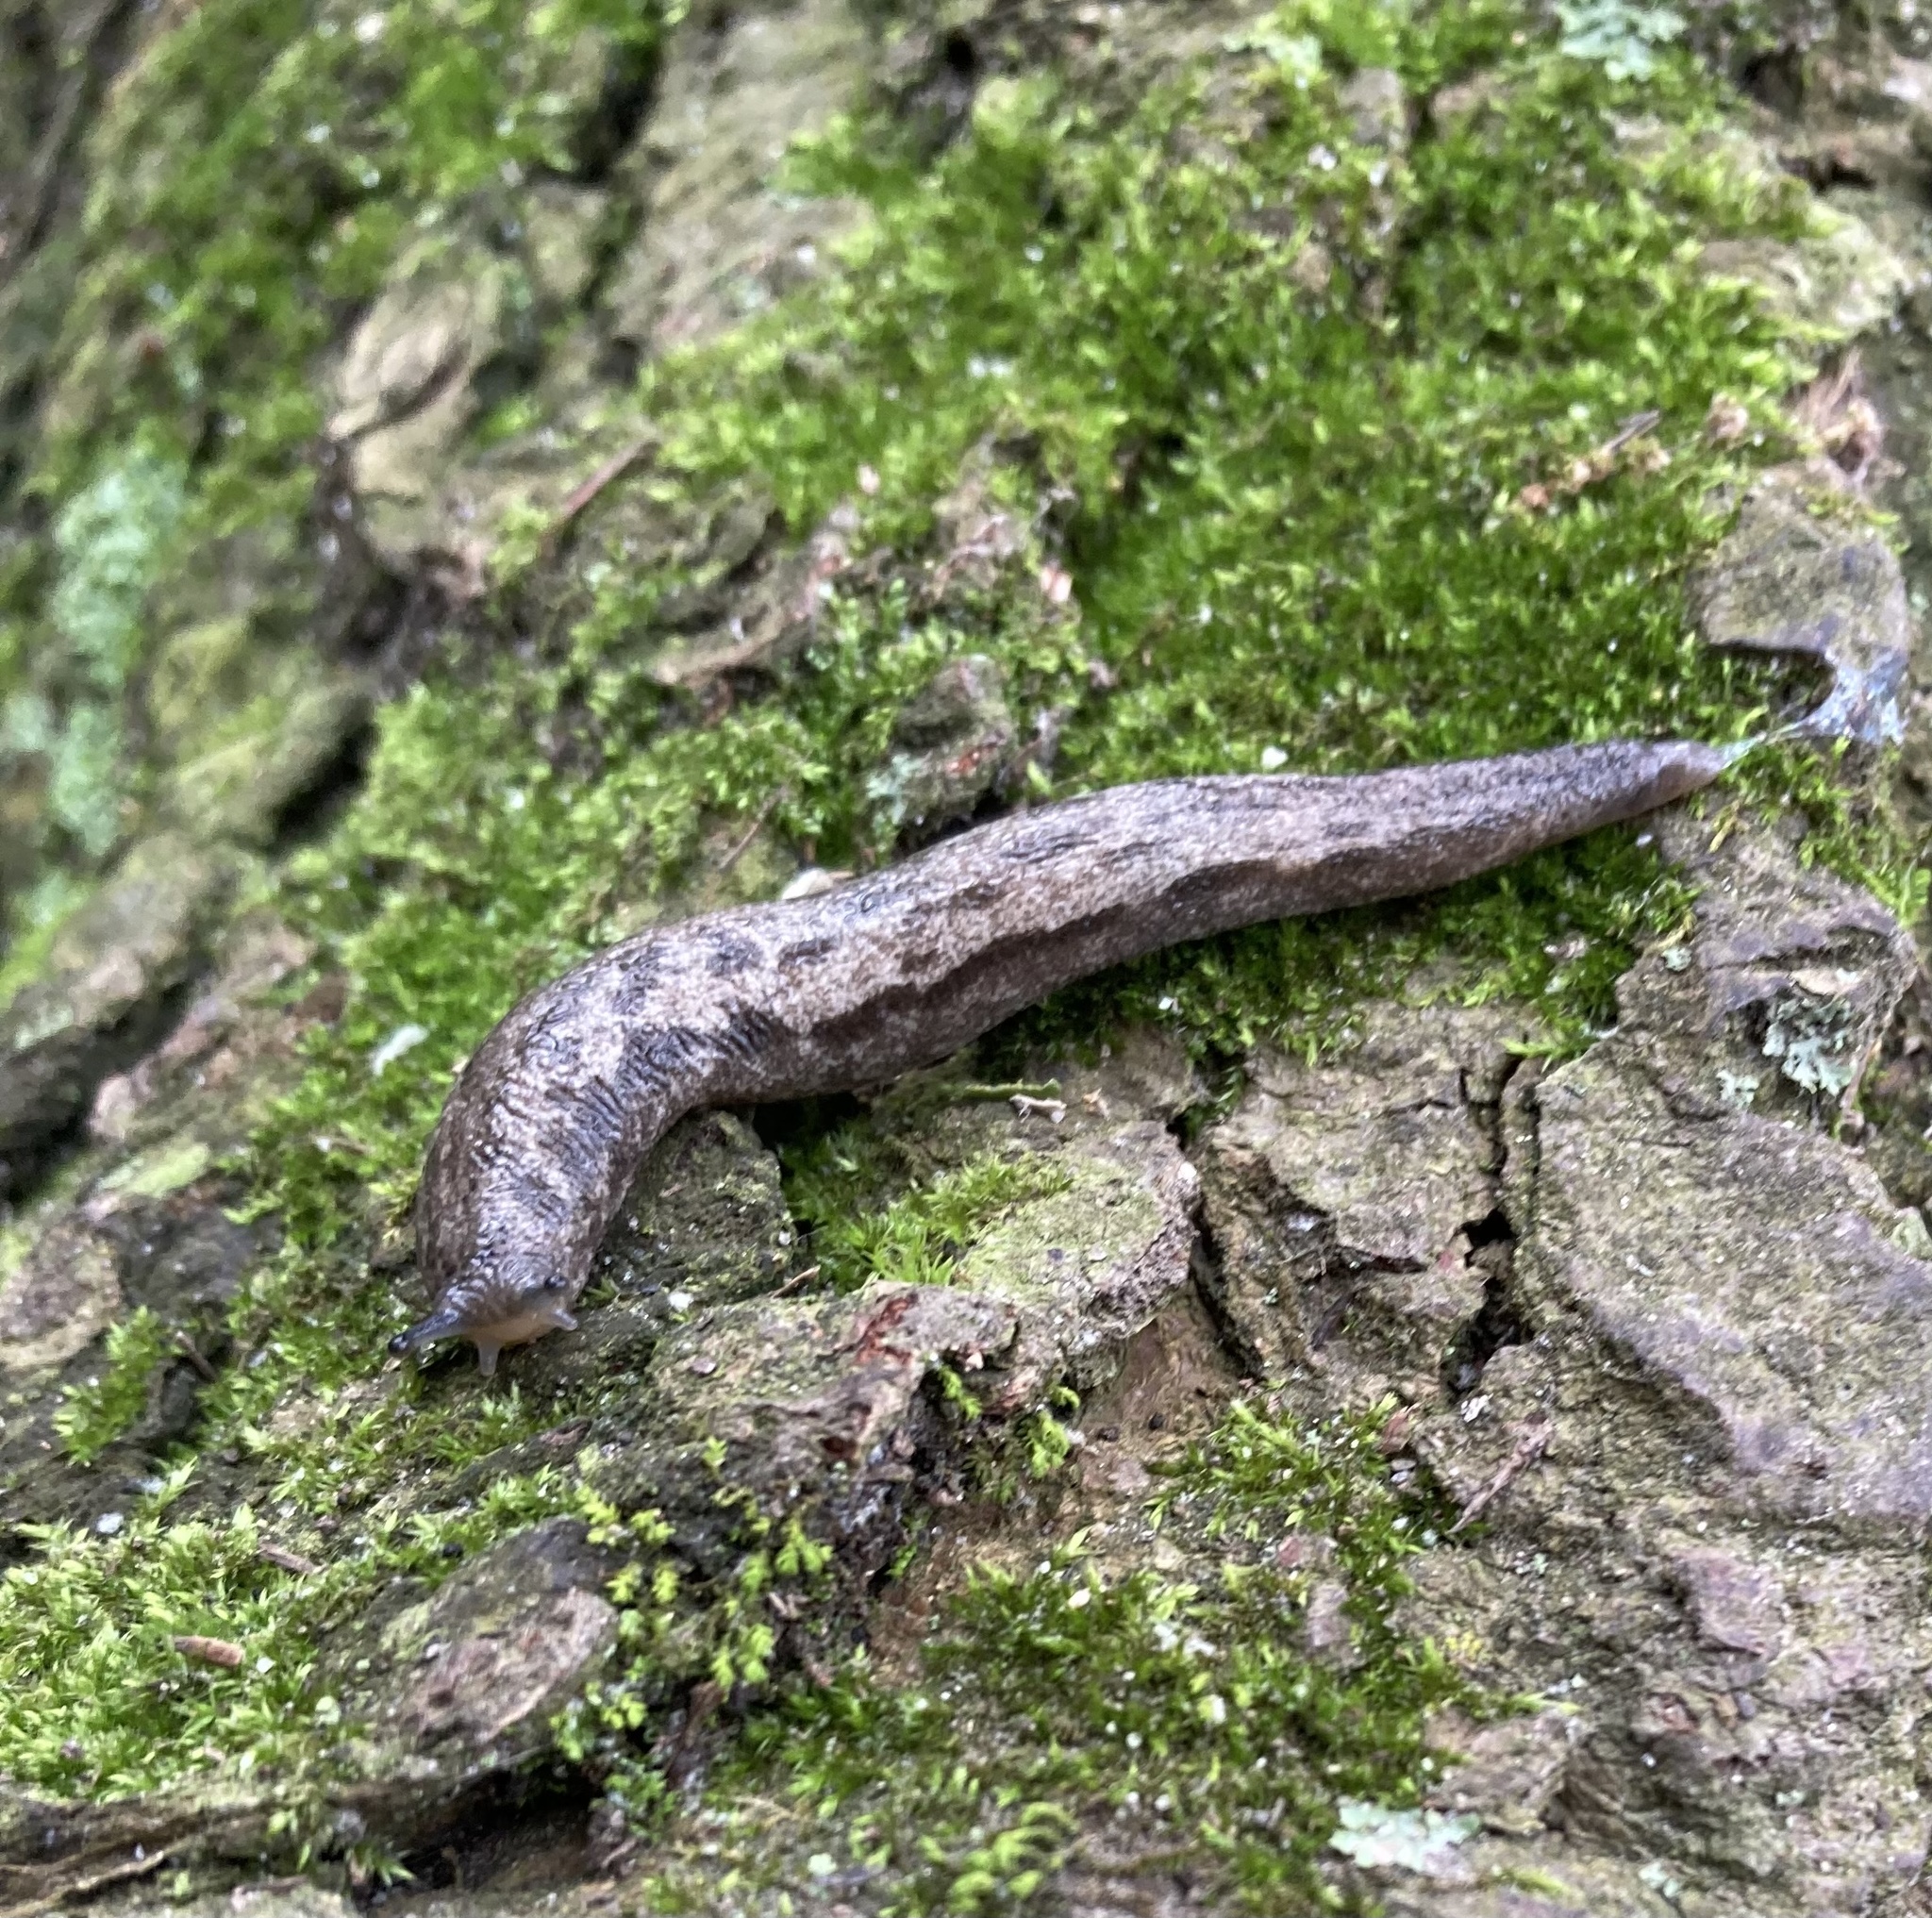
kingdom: Animalia
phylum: Mollusca
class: Gastropoda
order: Stylommatophora
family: Philomycidae
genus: Megapallifera
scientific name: Megapallifera mutabilis
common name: Changeable mantleslug
